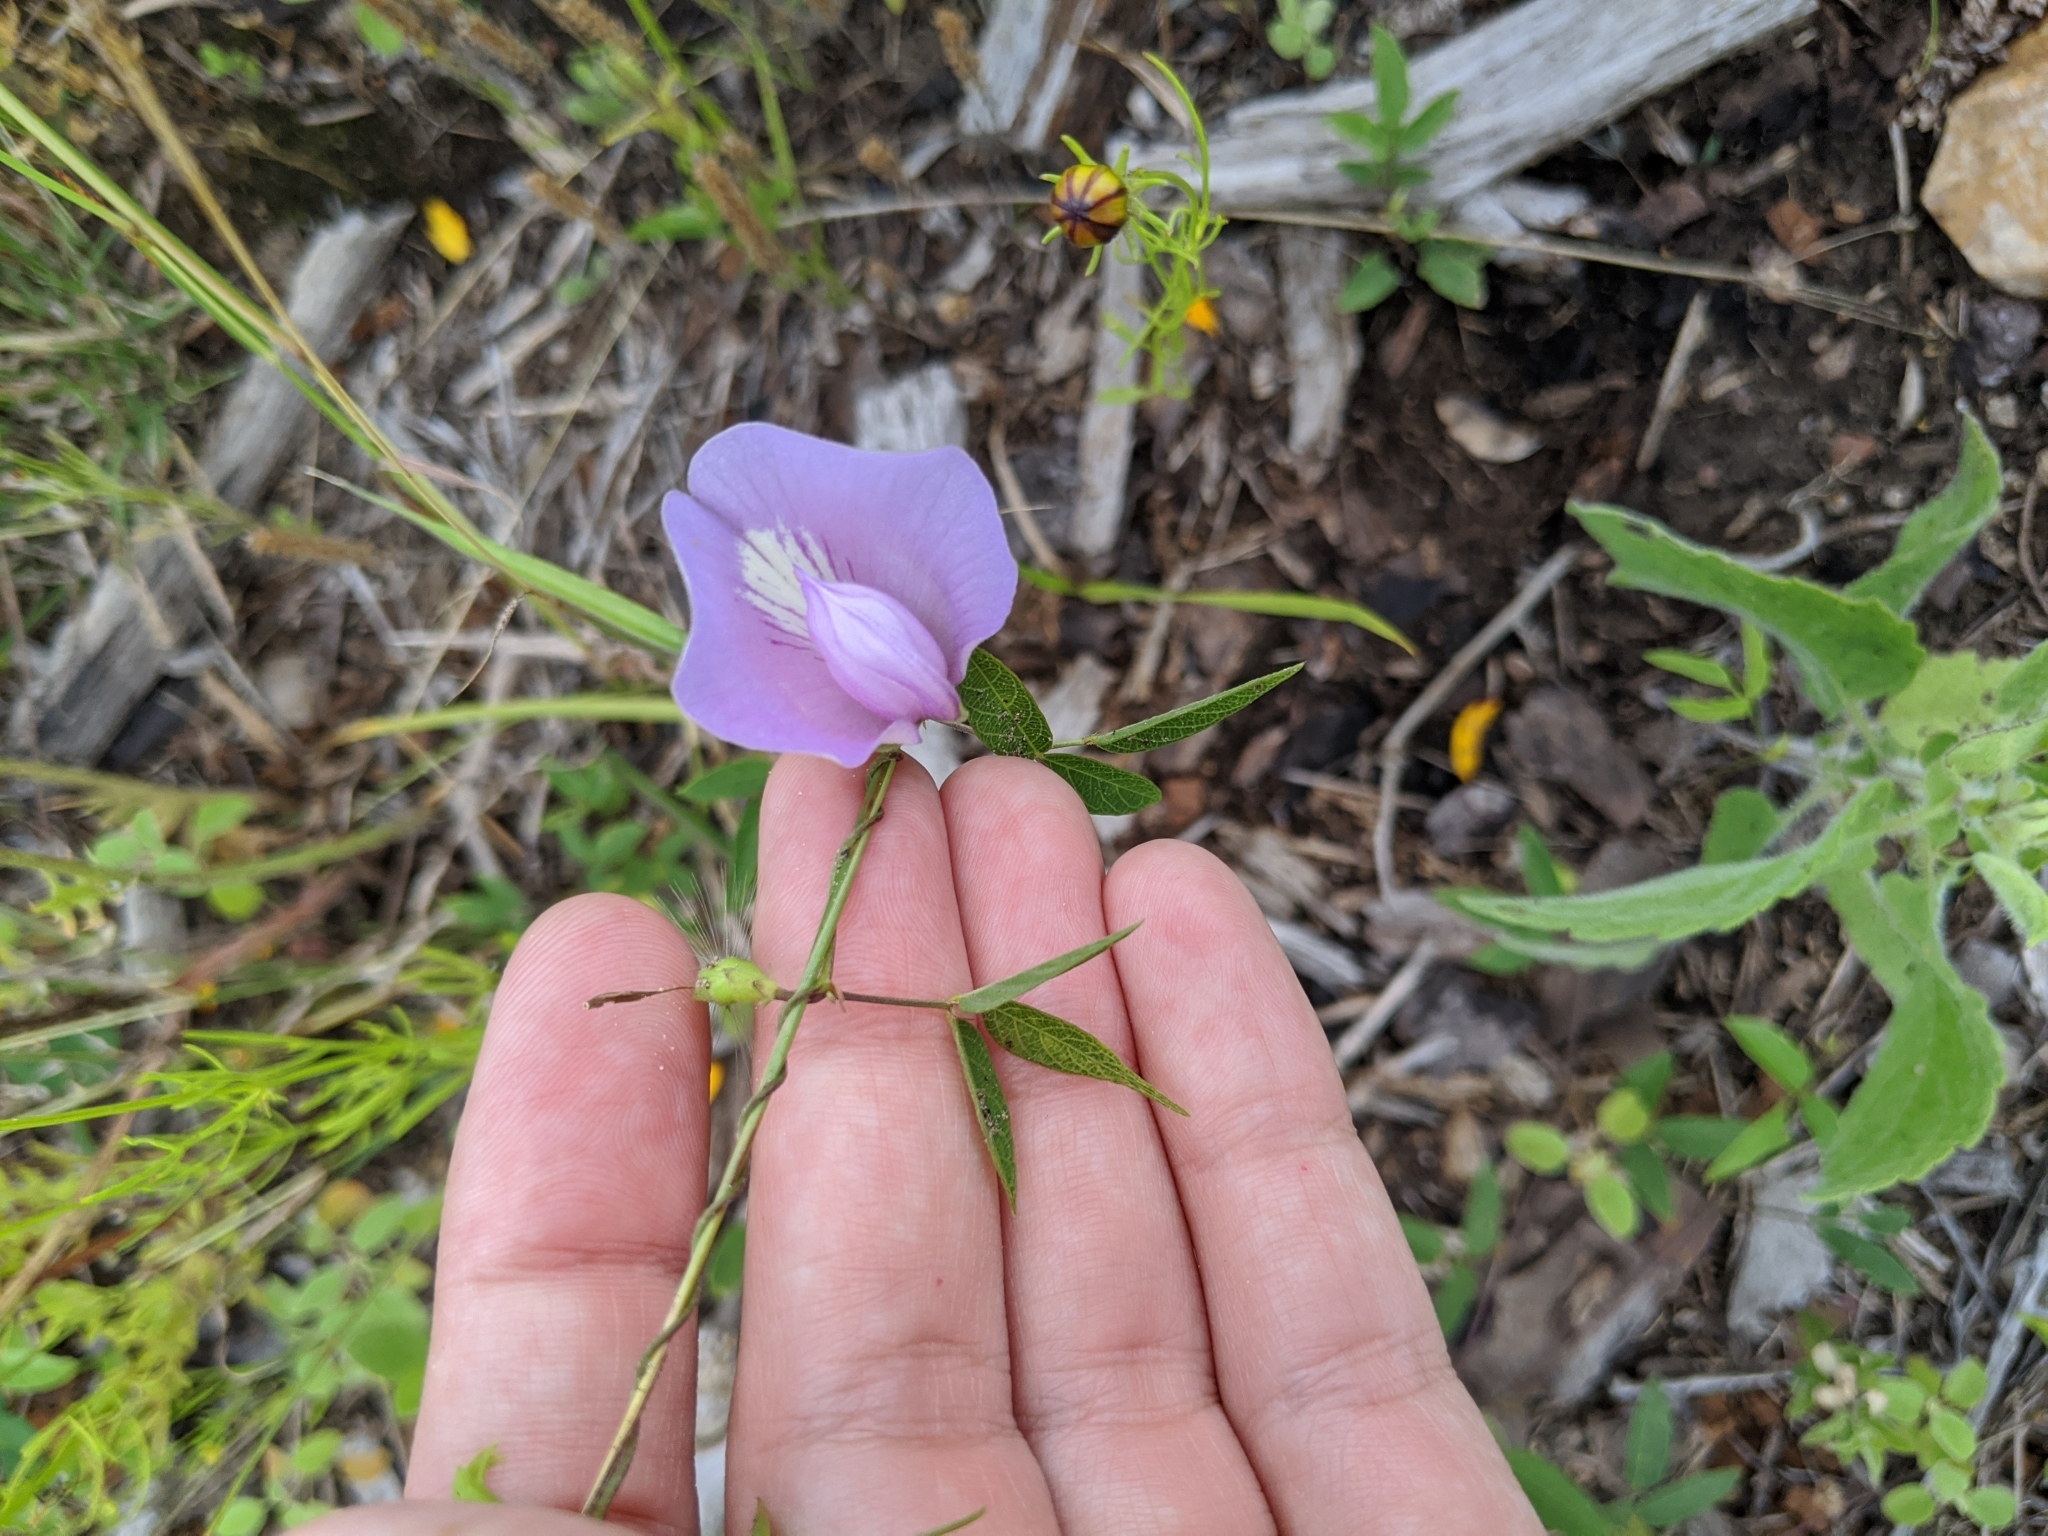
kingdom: Plantae
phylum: Tracheophyta
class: Magnoliopsida
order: Fabales
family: Fabaceae
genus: Centrosema
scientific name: Centrosema virginianum
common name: Butterfly-pea
